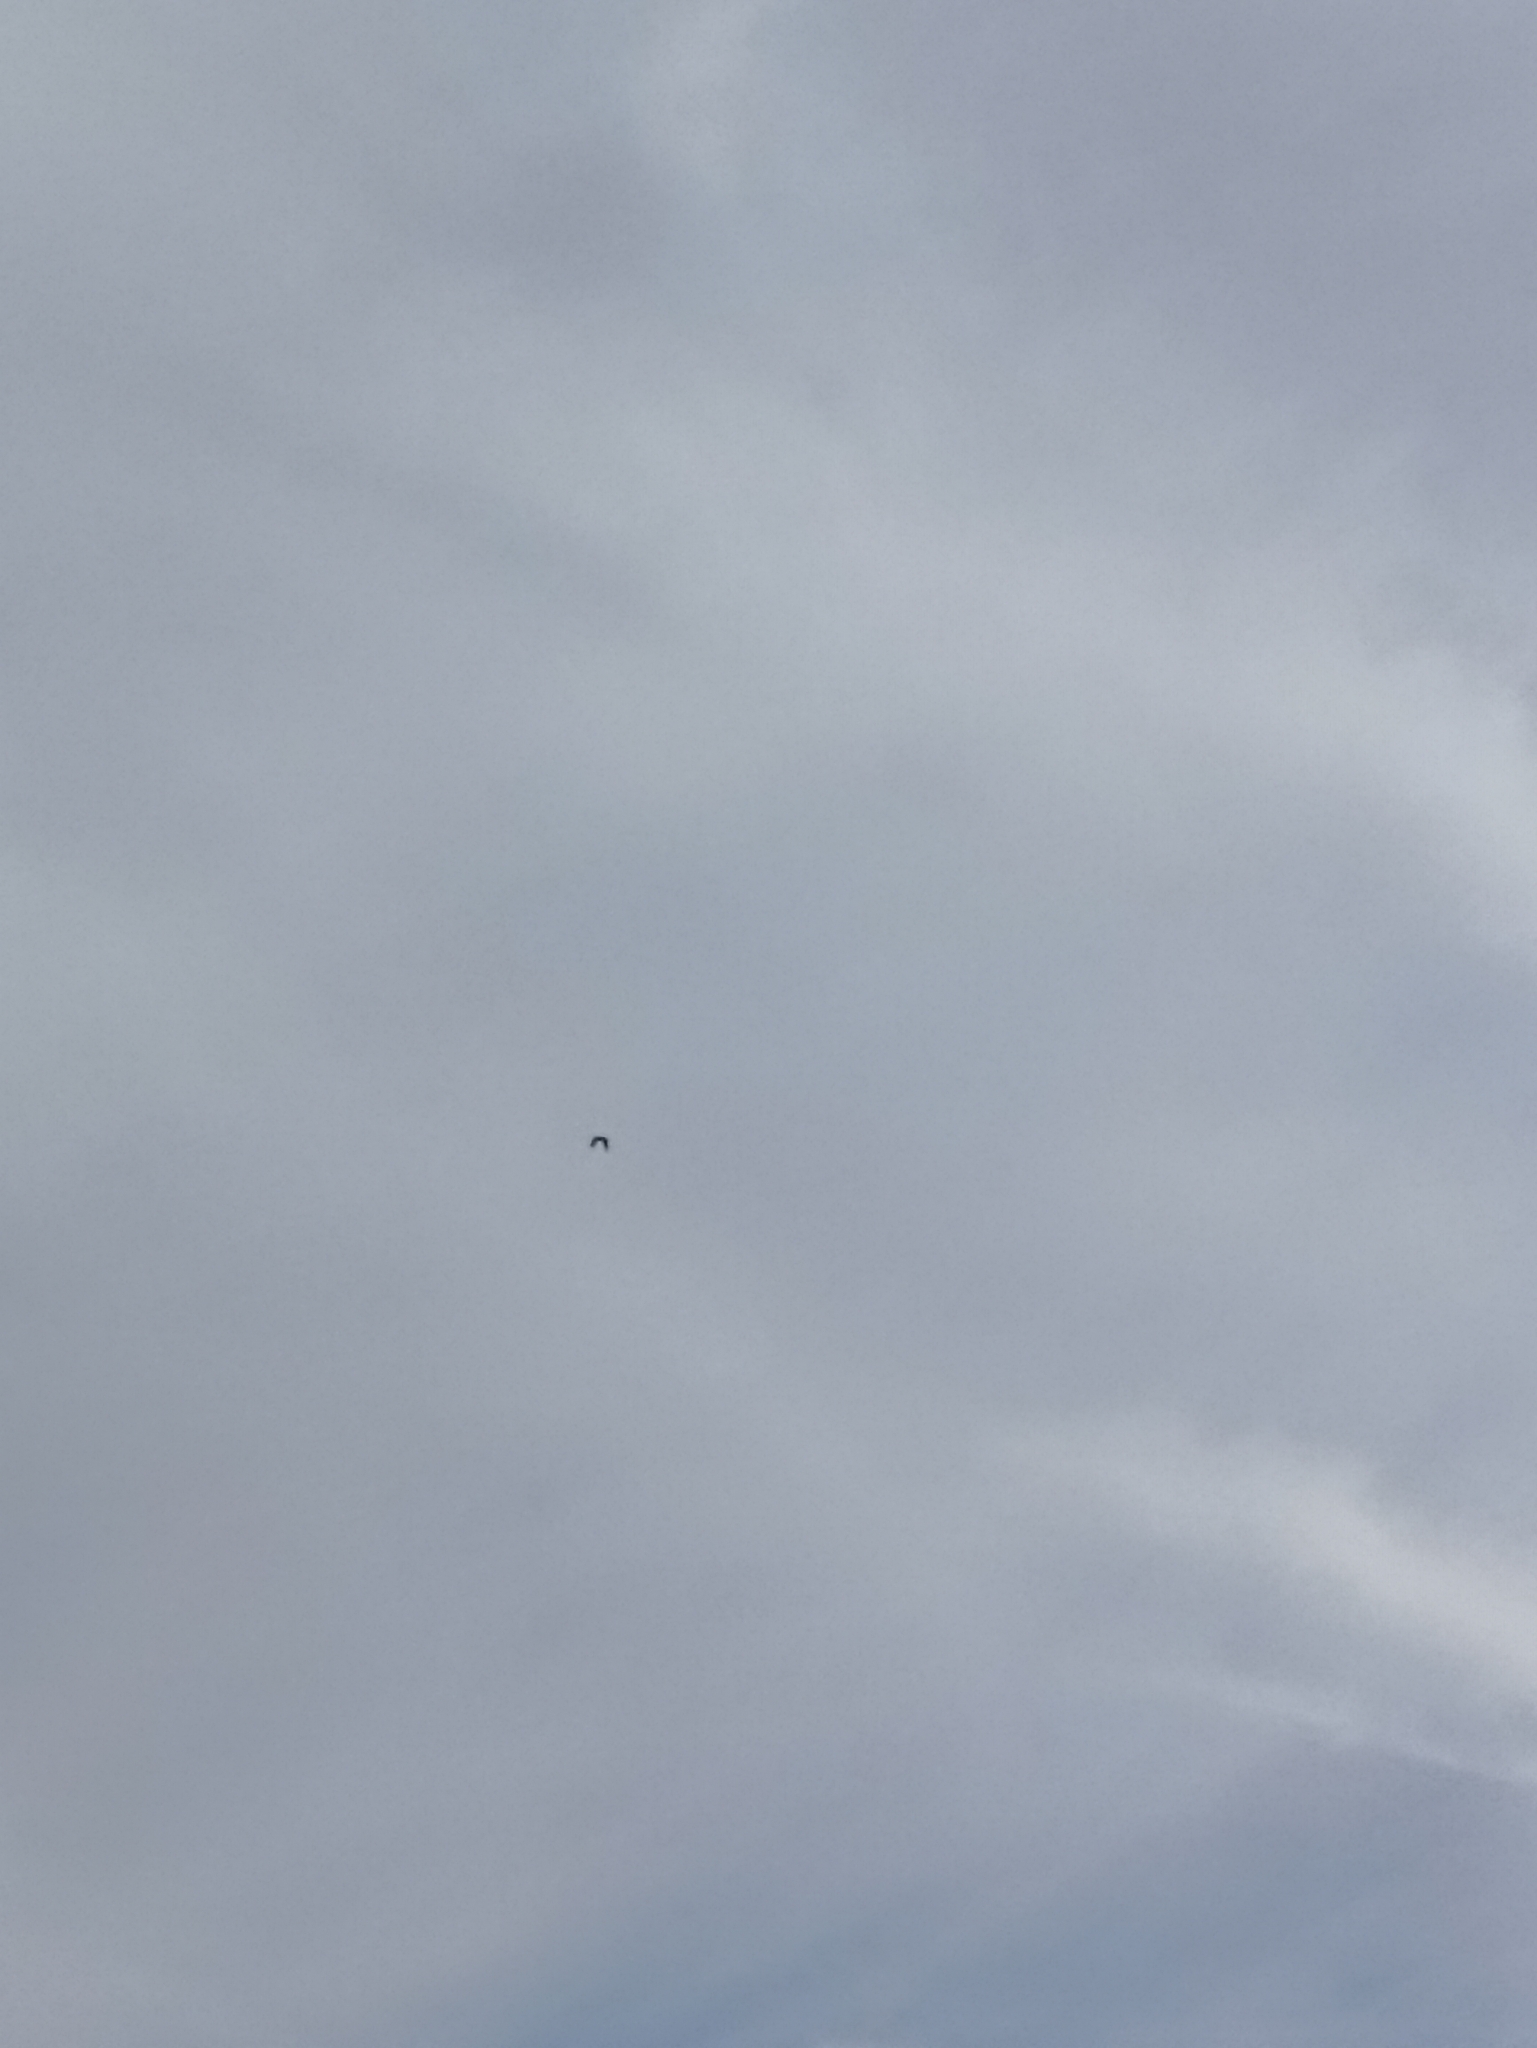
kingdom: Animalia
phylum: Chordata
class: Aves
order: Psittaciformes
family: Psittacidae
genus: Nestor
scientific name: Nestor meridionalis
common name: New zealand kaka
